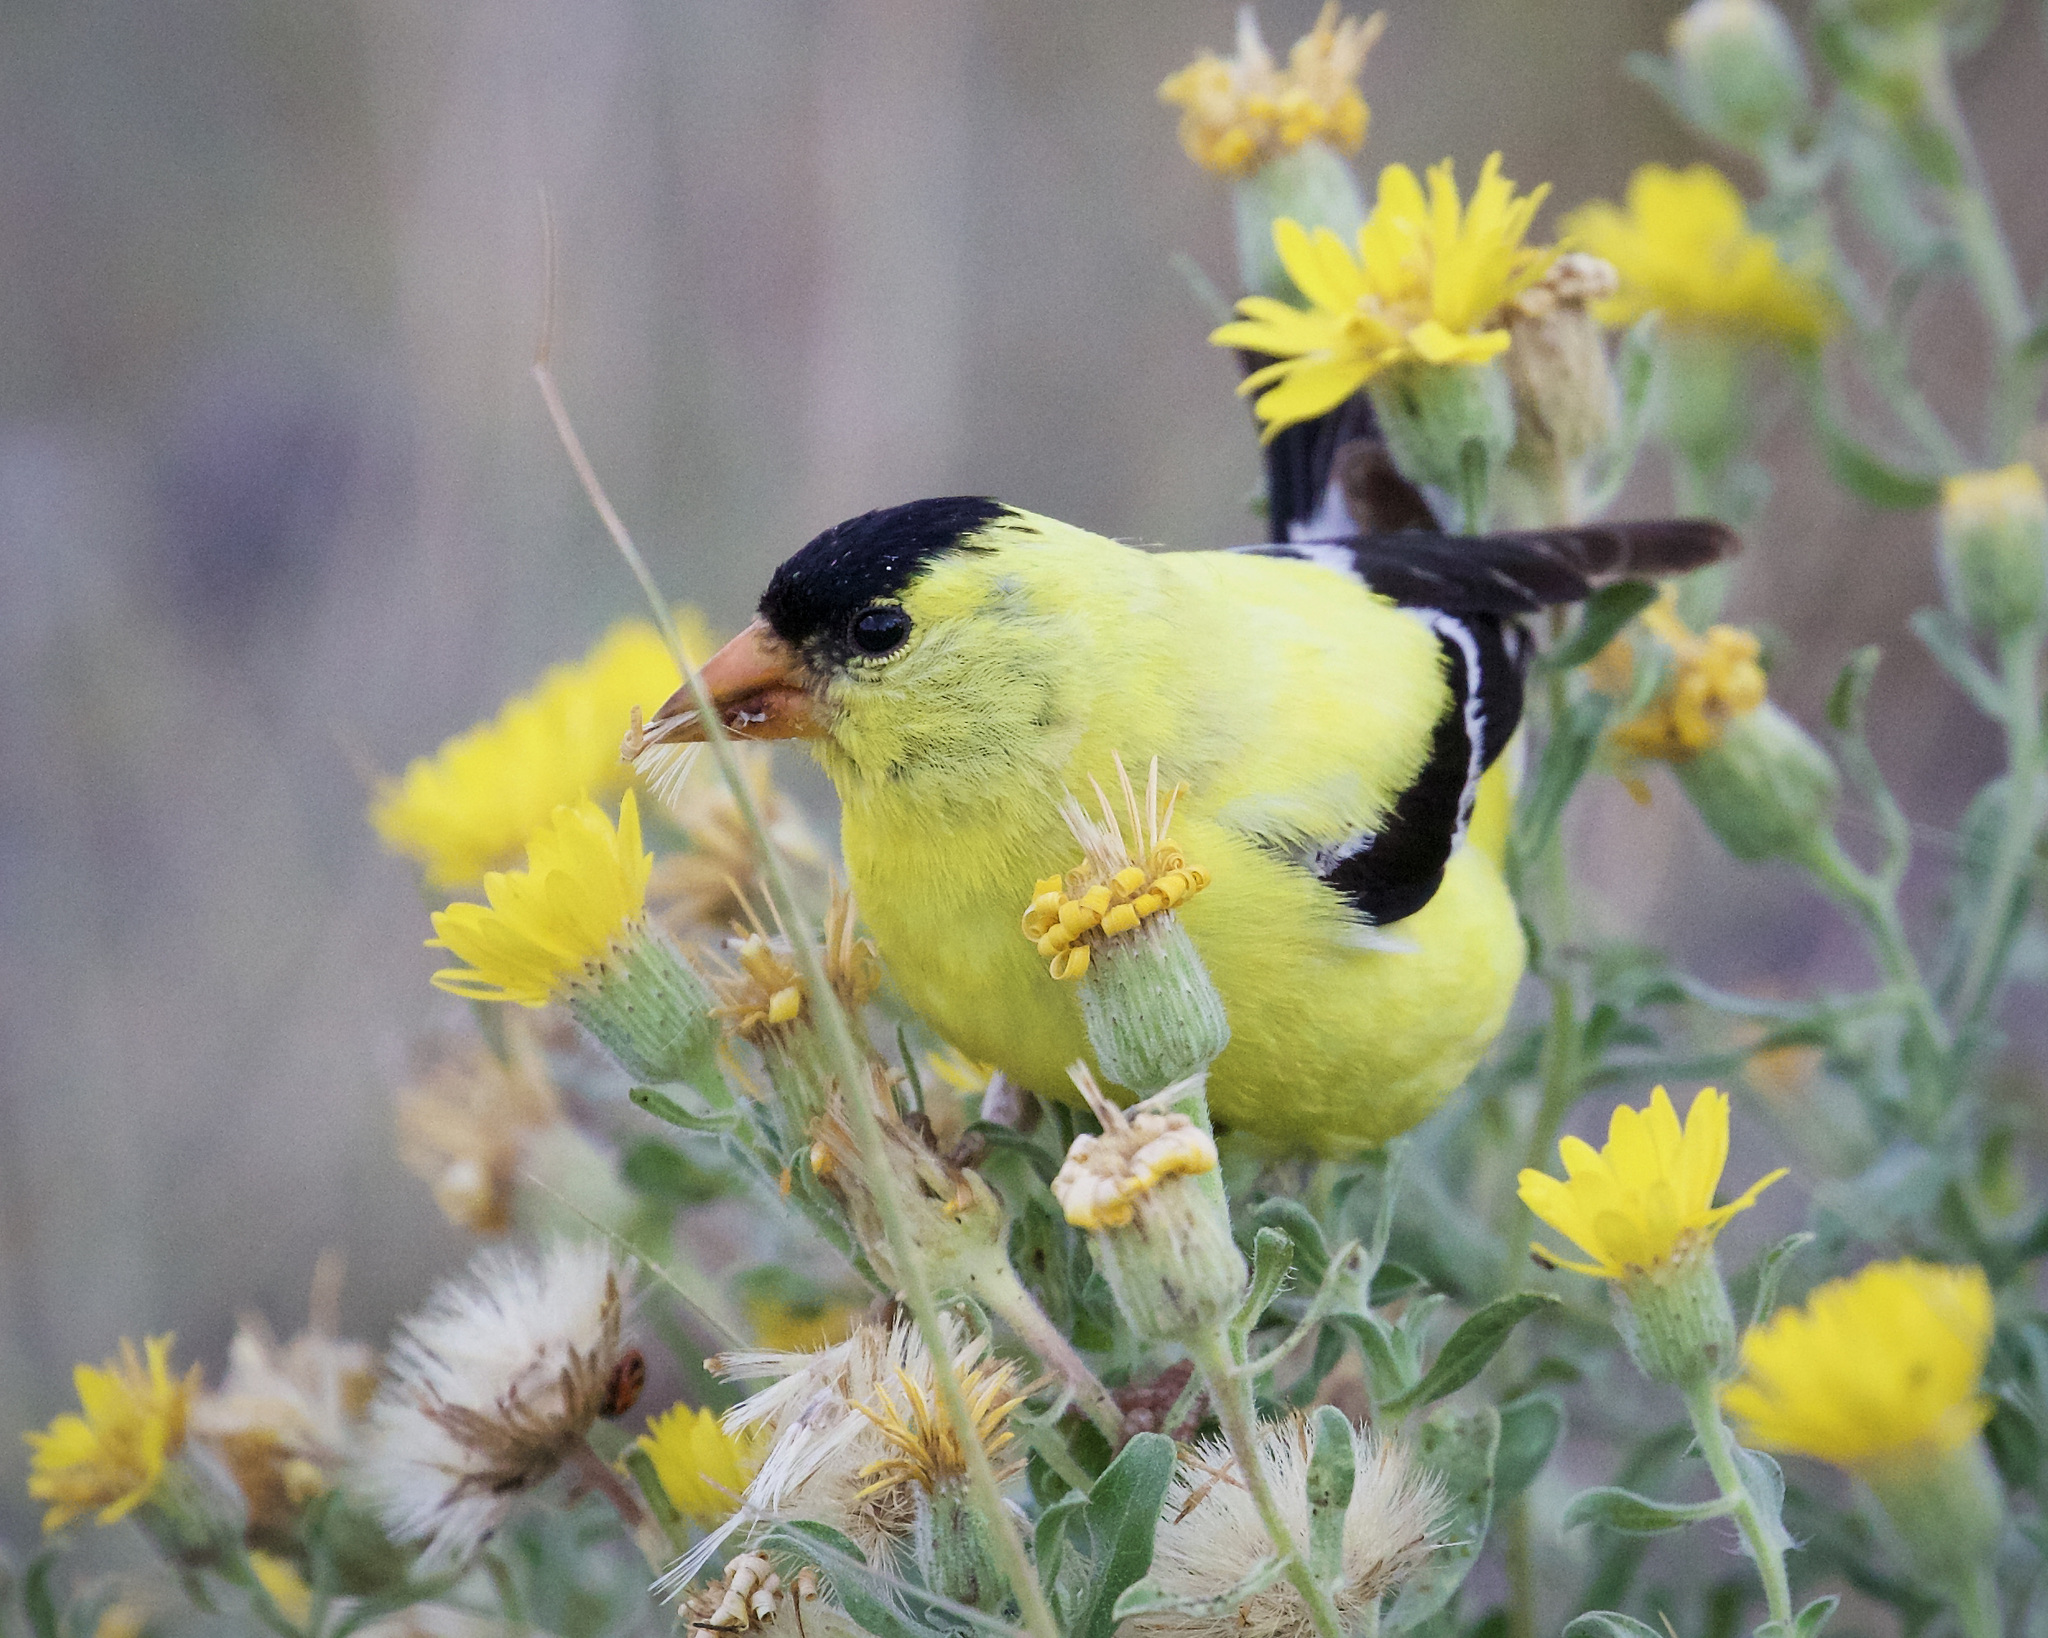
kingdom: Animalia
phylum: Chordata
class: Aves
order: Passeriformes
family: Fringillidae
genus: Spinus
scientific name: Spinus tristis
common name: American goldfinch
